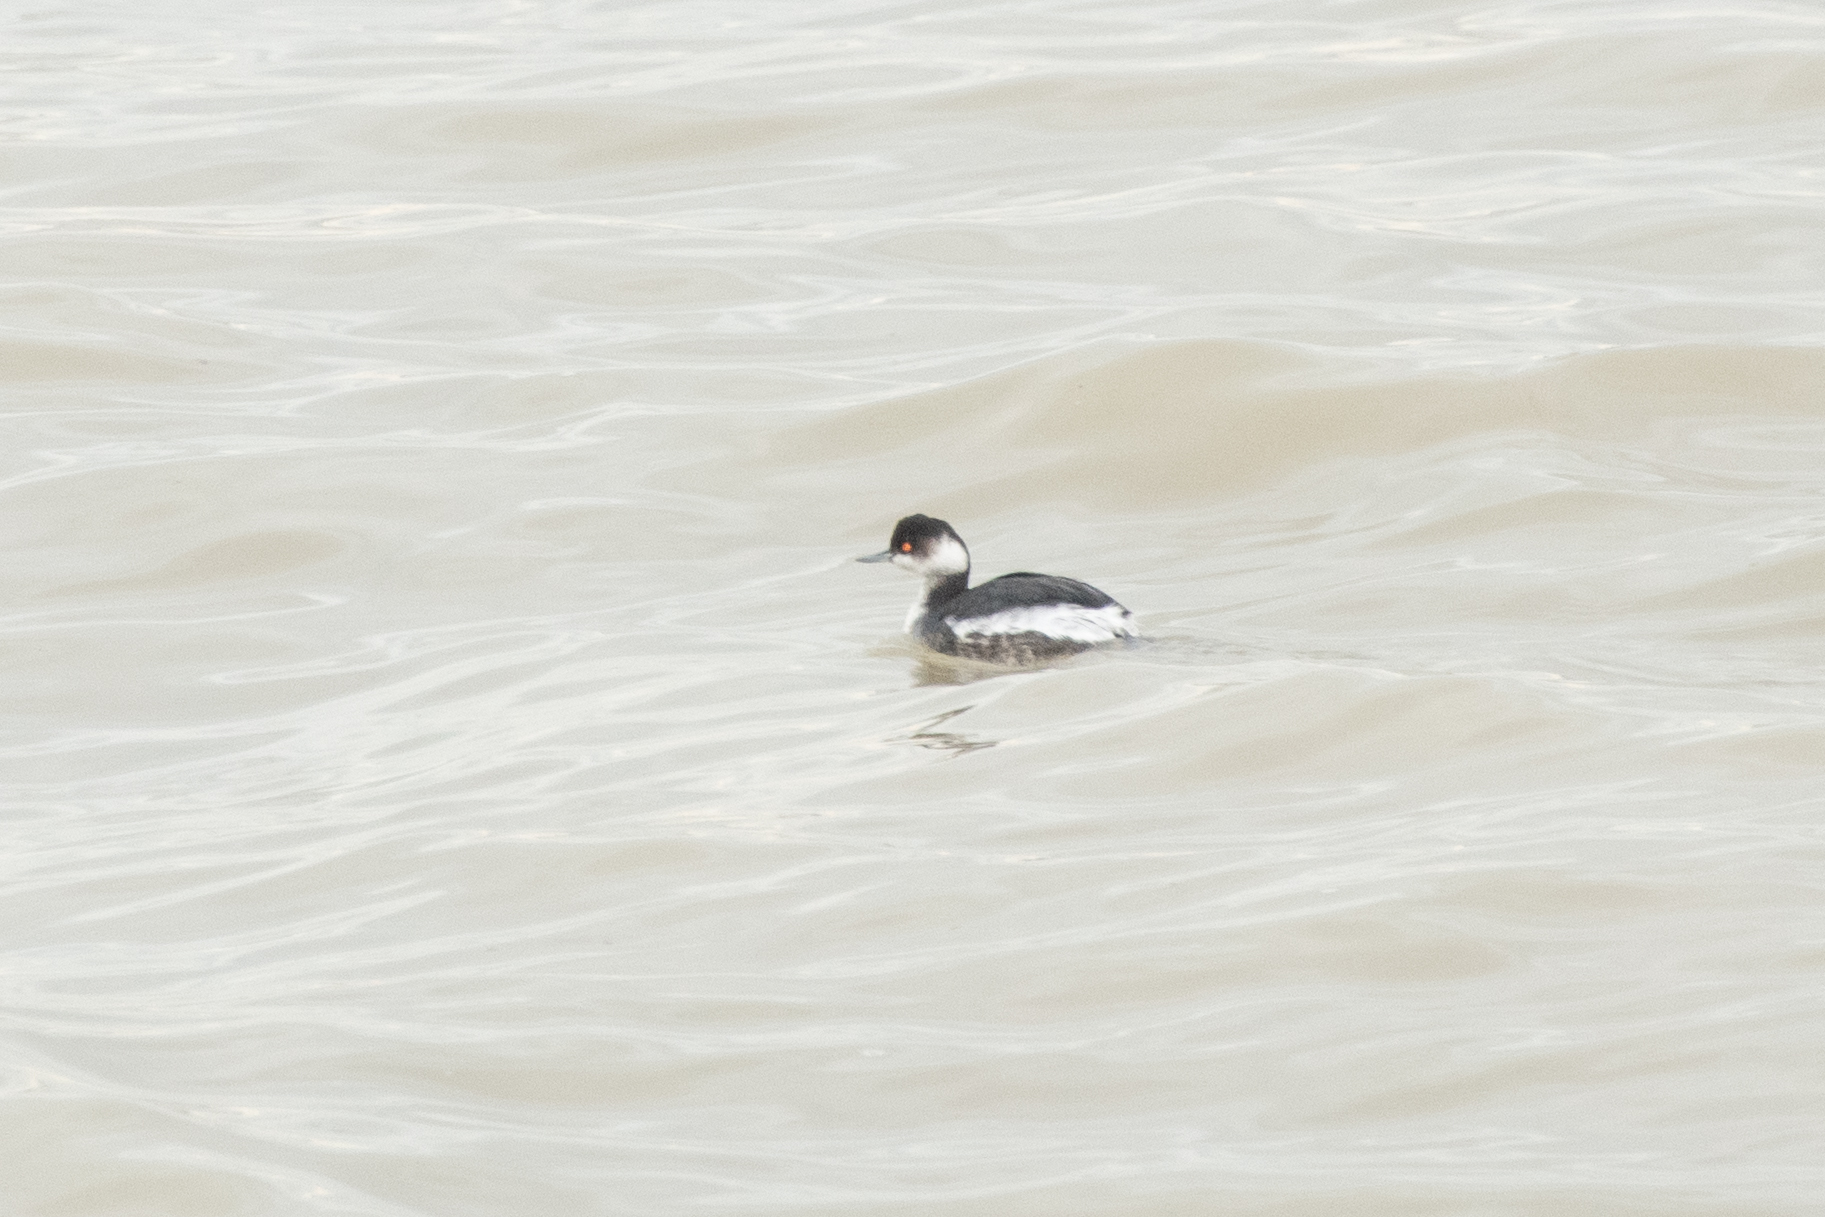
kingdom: Animalia
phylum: Chordata
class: Aves
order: Podicipediformes
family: Podicipedidae
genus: Podiceps
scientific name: Podiceps nigricollis
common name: Black-necked grebe
